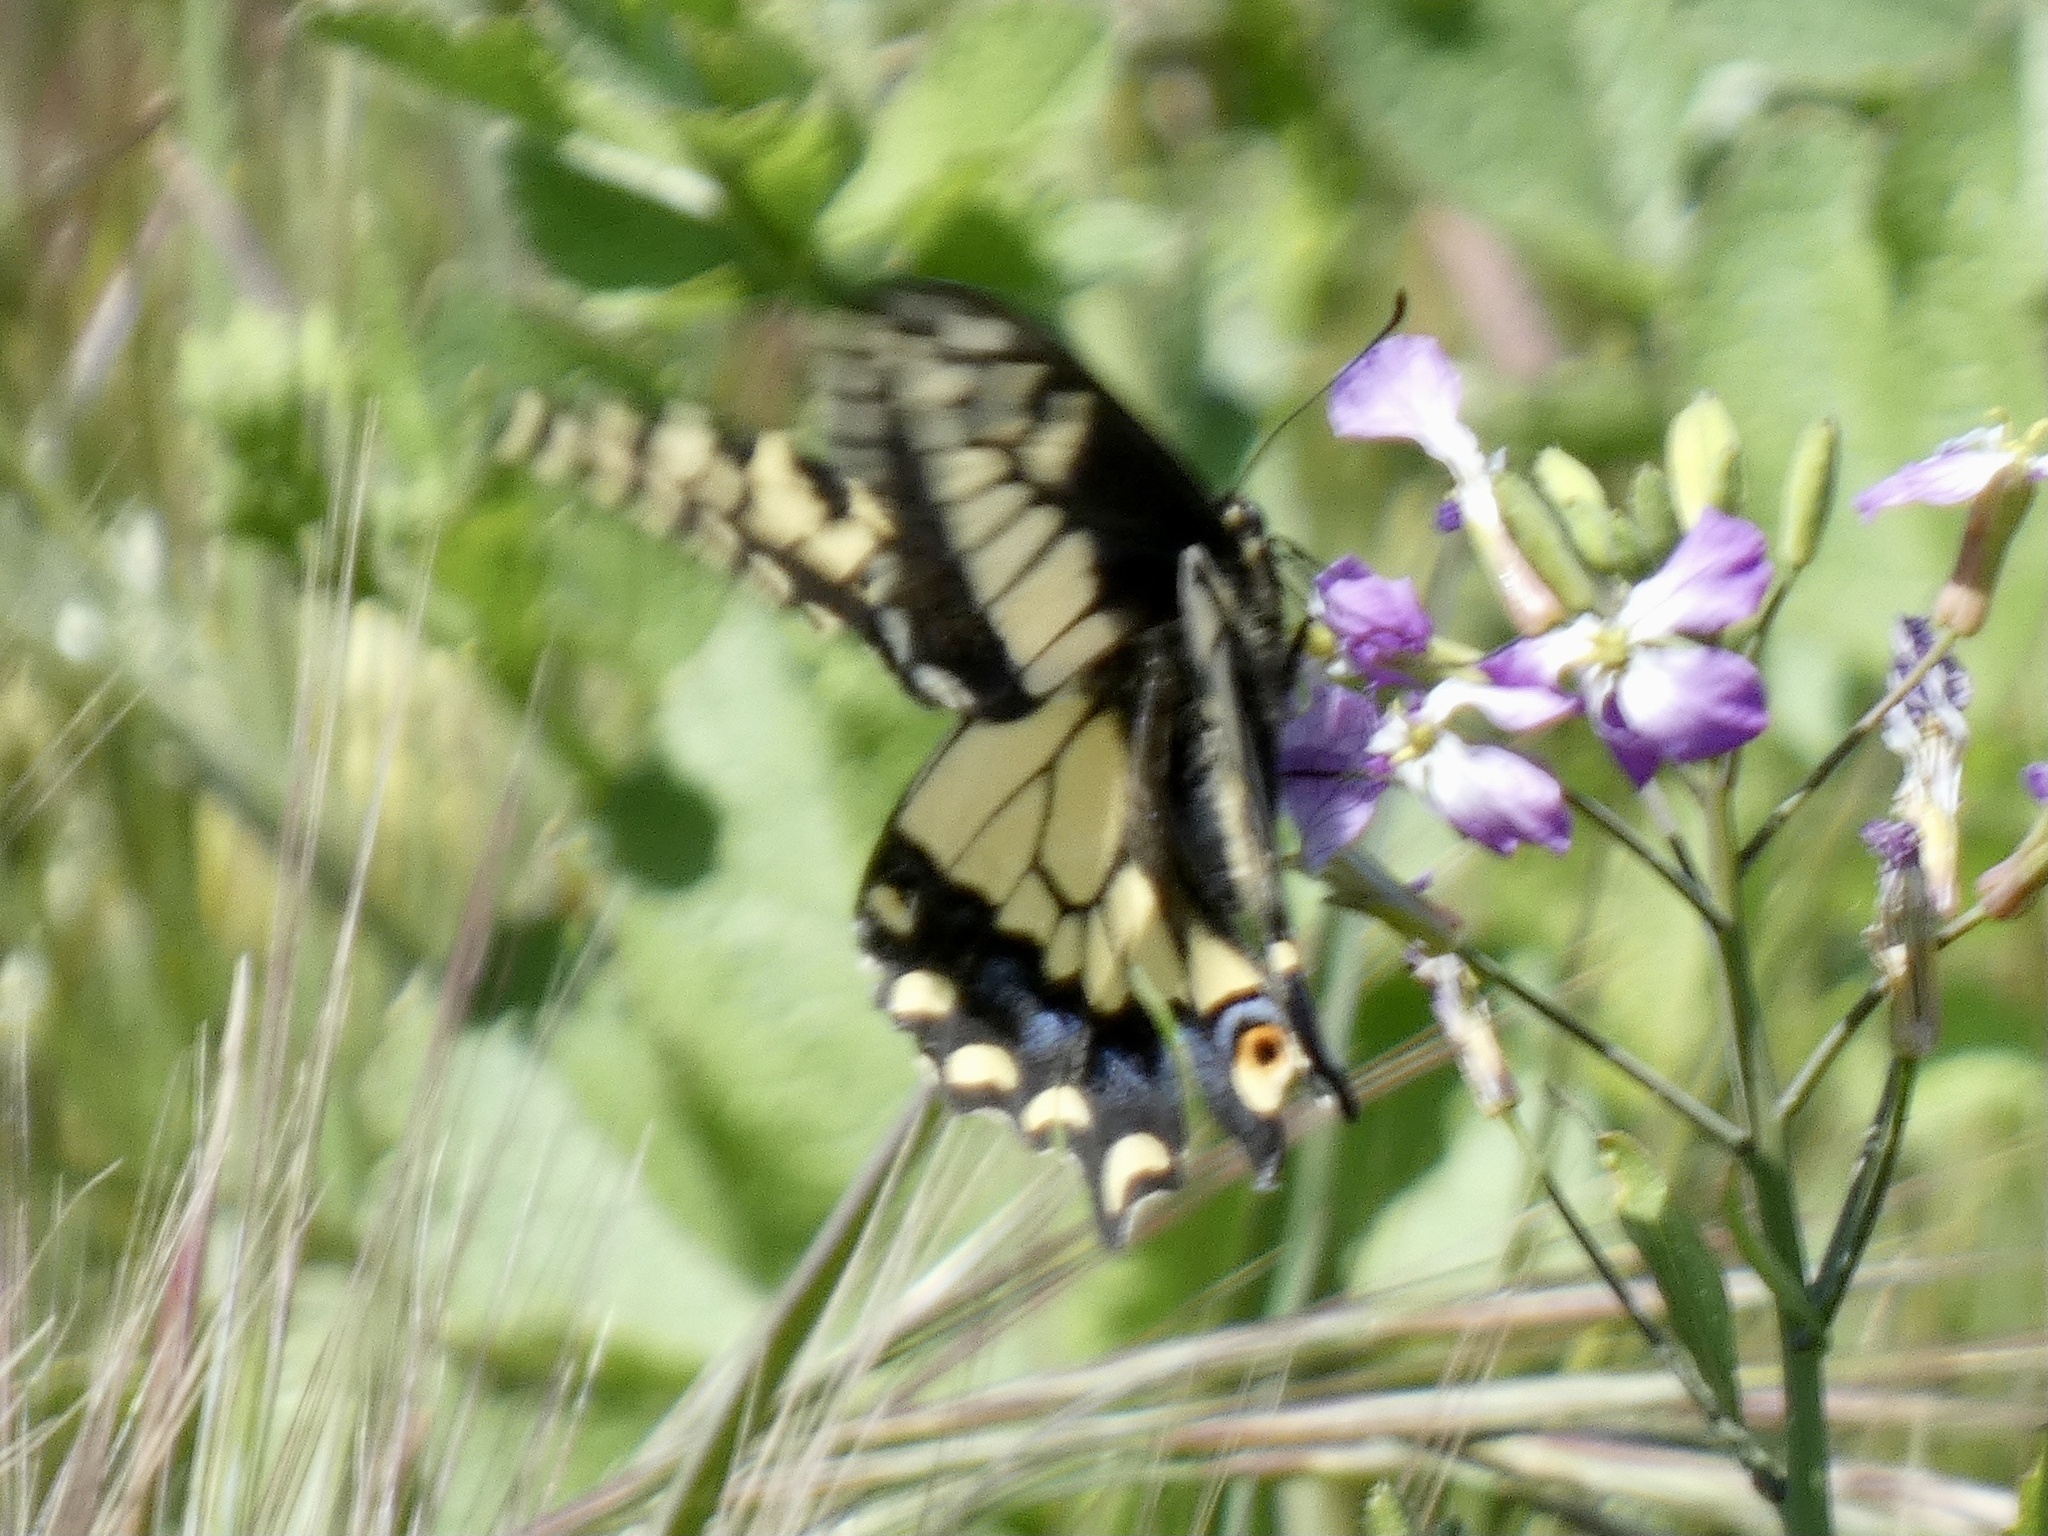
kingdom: Animalia
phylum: Arthropoda
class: Insecta
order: Lepidoptera
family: Papilionidae
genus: Papilio
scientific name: Papilio zelicaon
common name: Anise swallowtail
